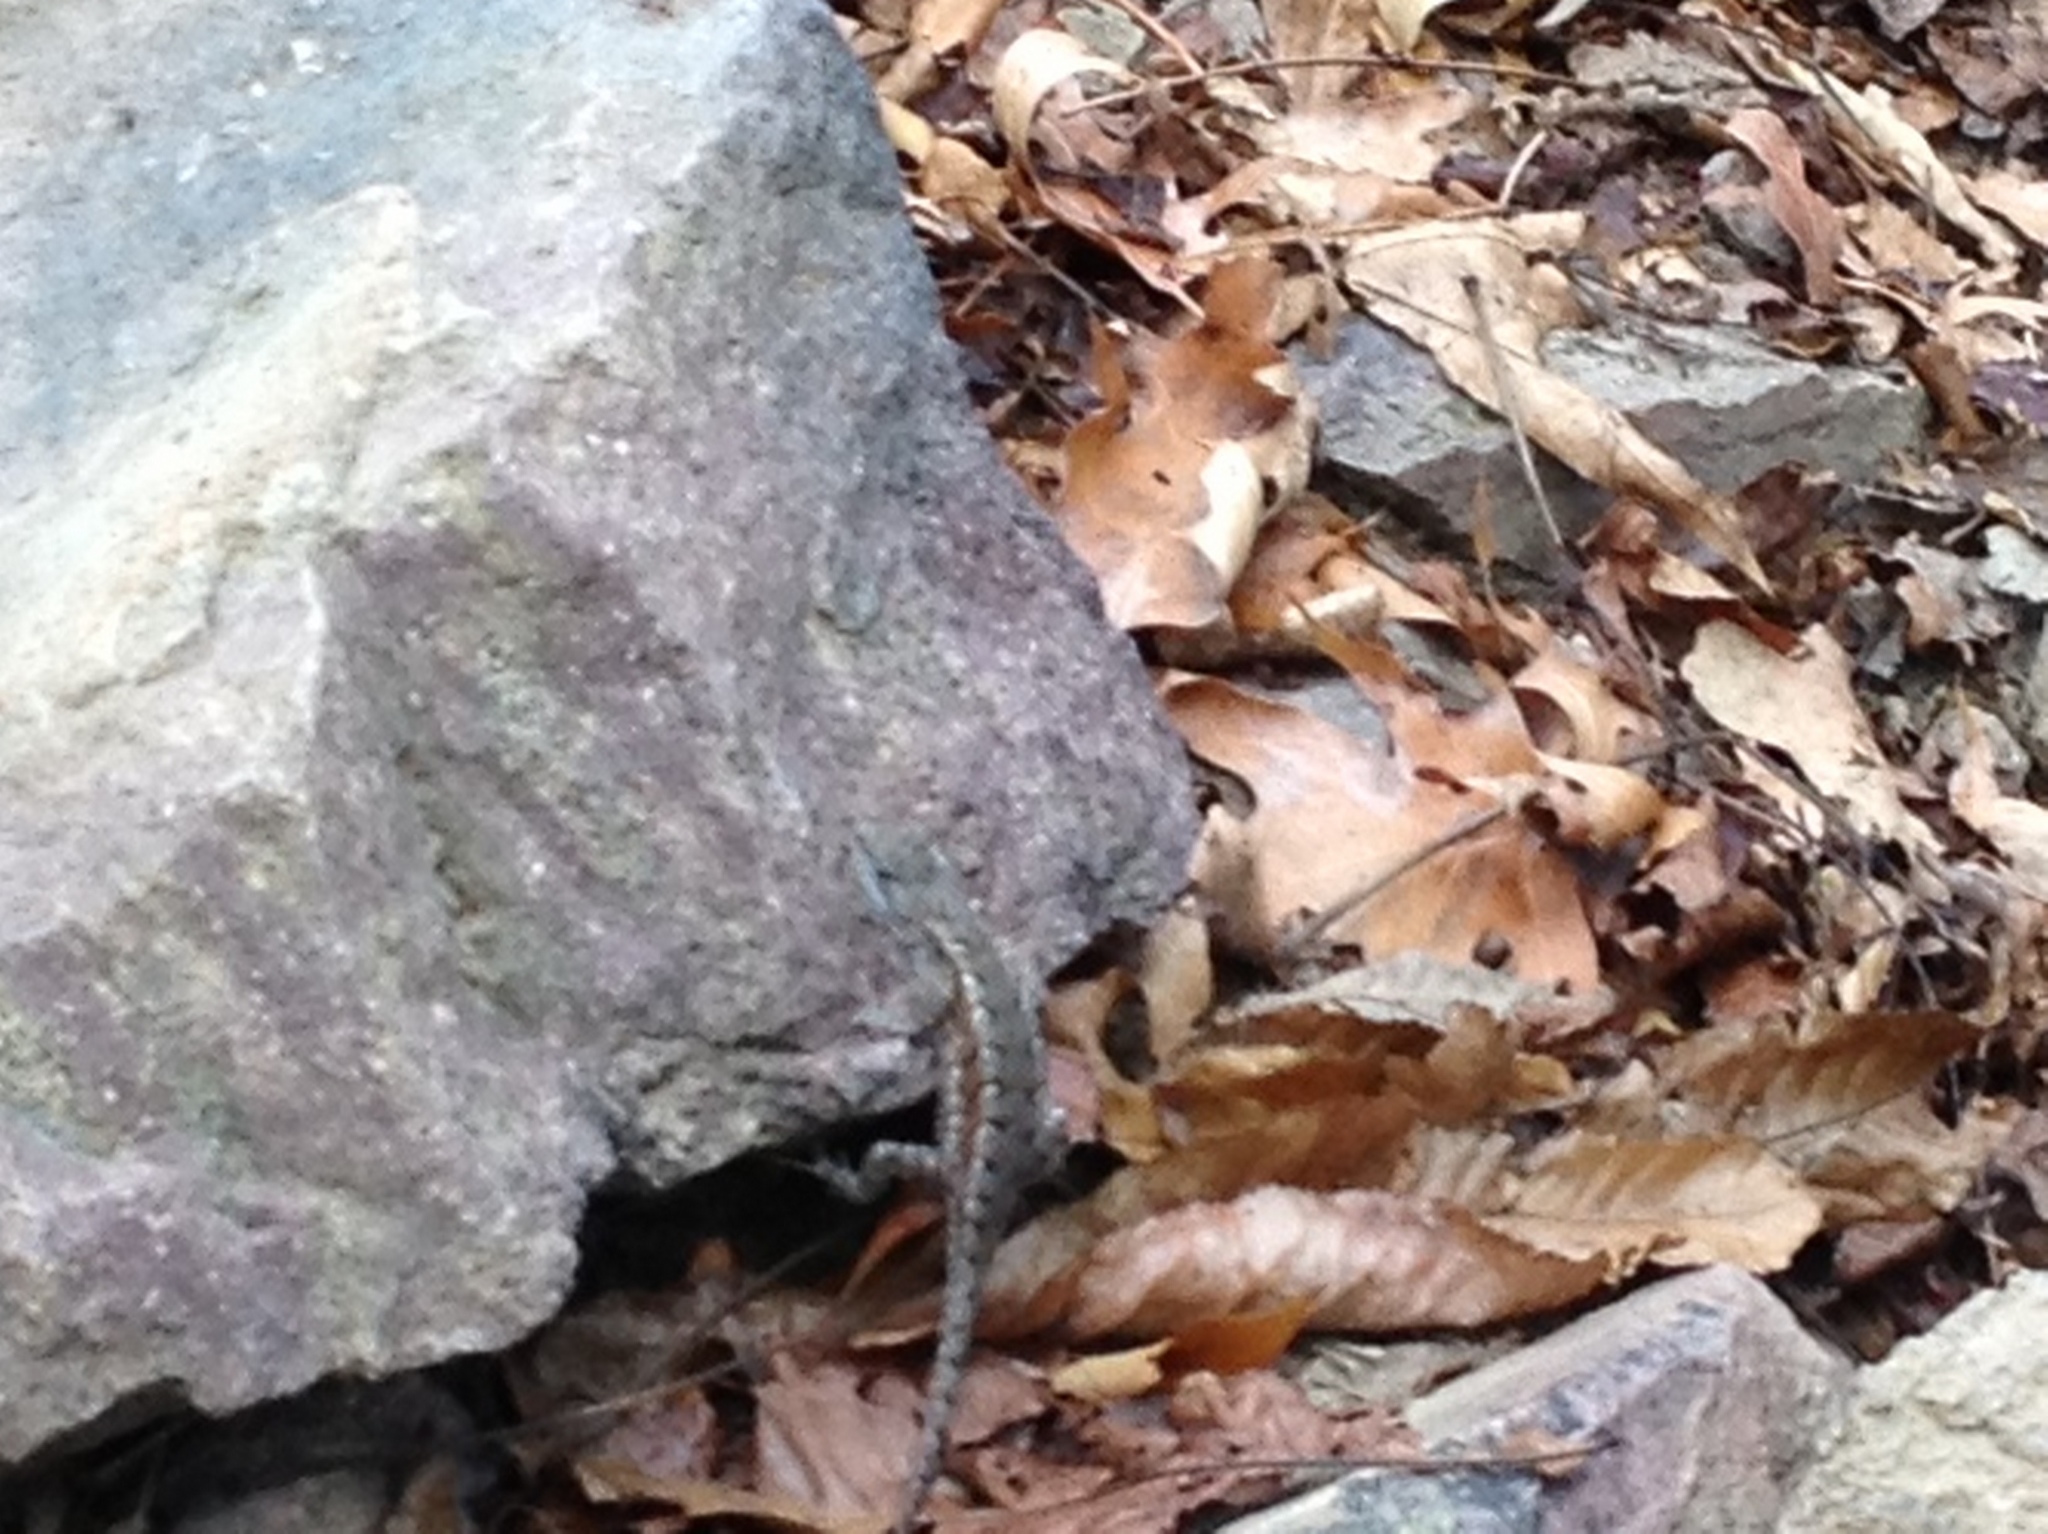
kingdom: Animalia
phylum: Chordata
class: Squamata
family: Phrynosomatidae
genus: Sceloporus
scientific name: Sceloporus consobrinus
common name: Southern prairie lizard
